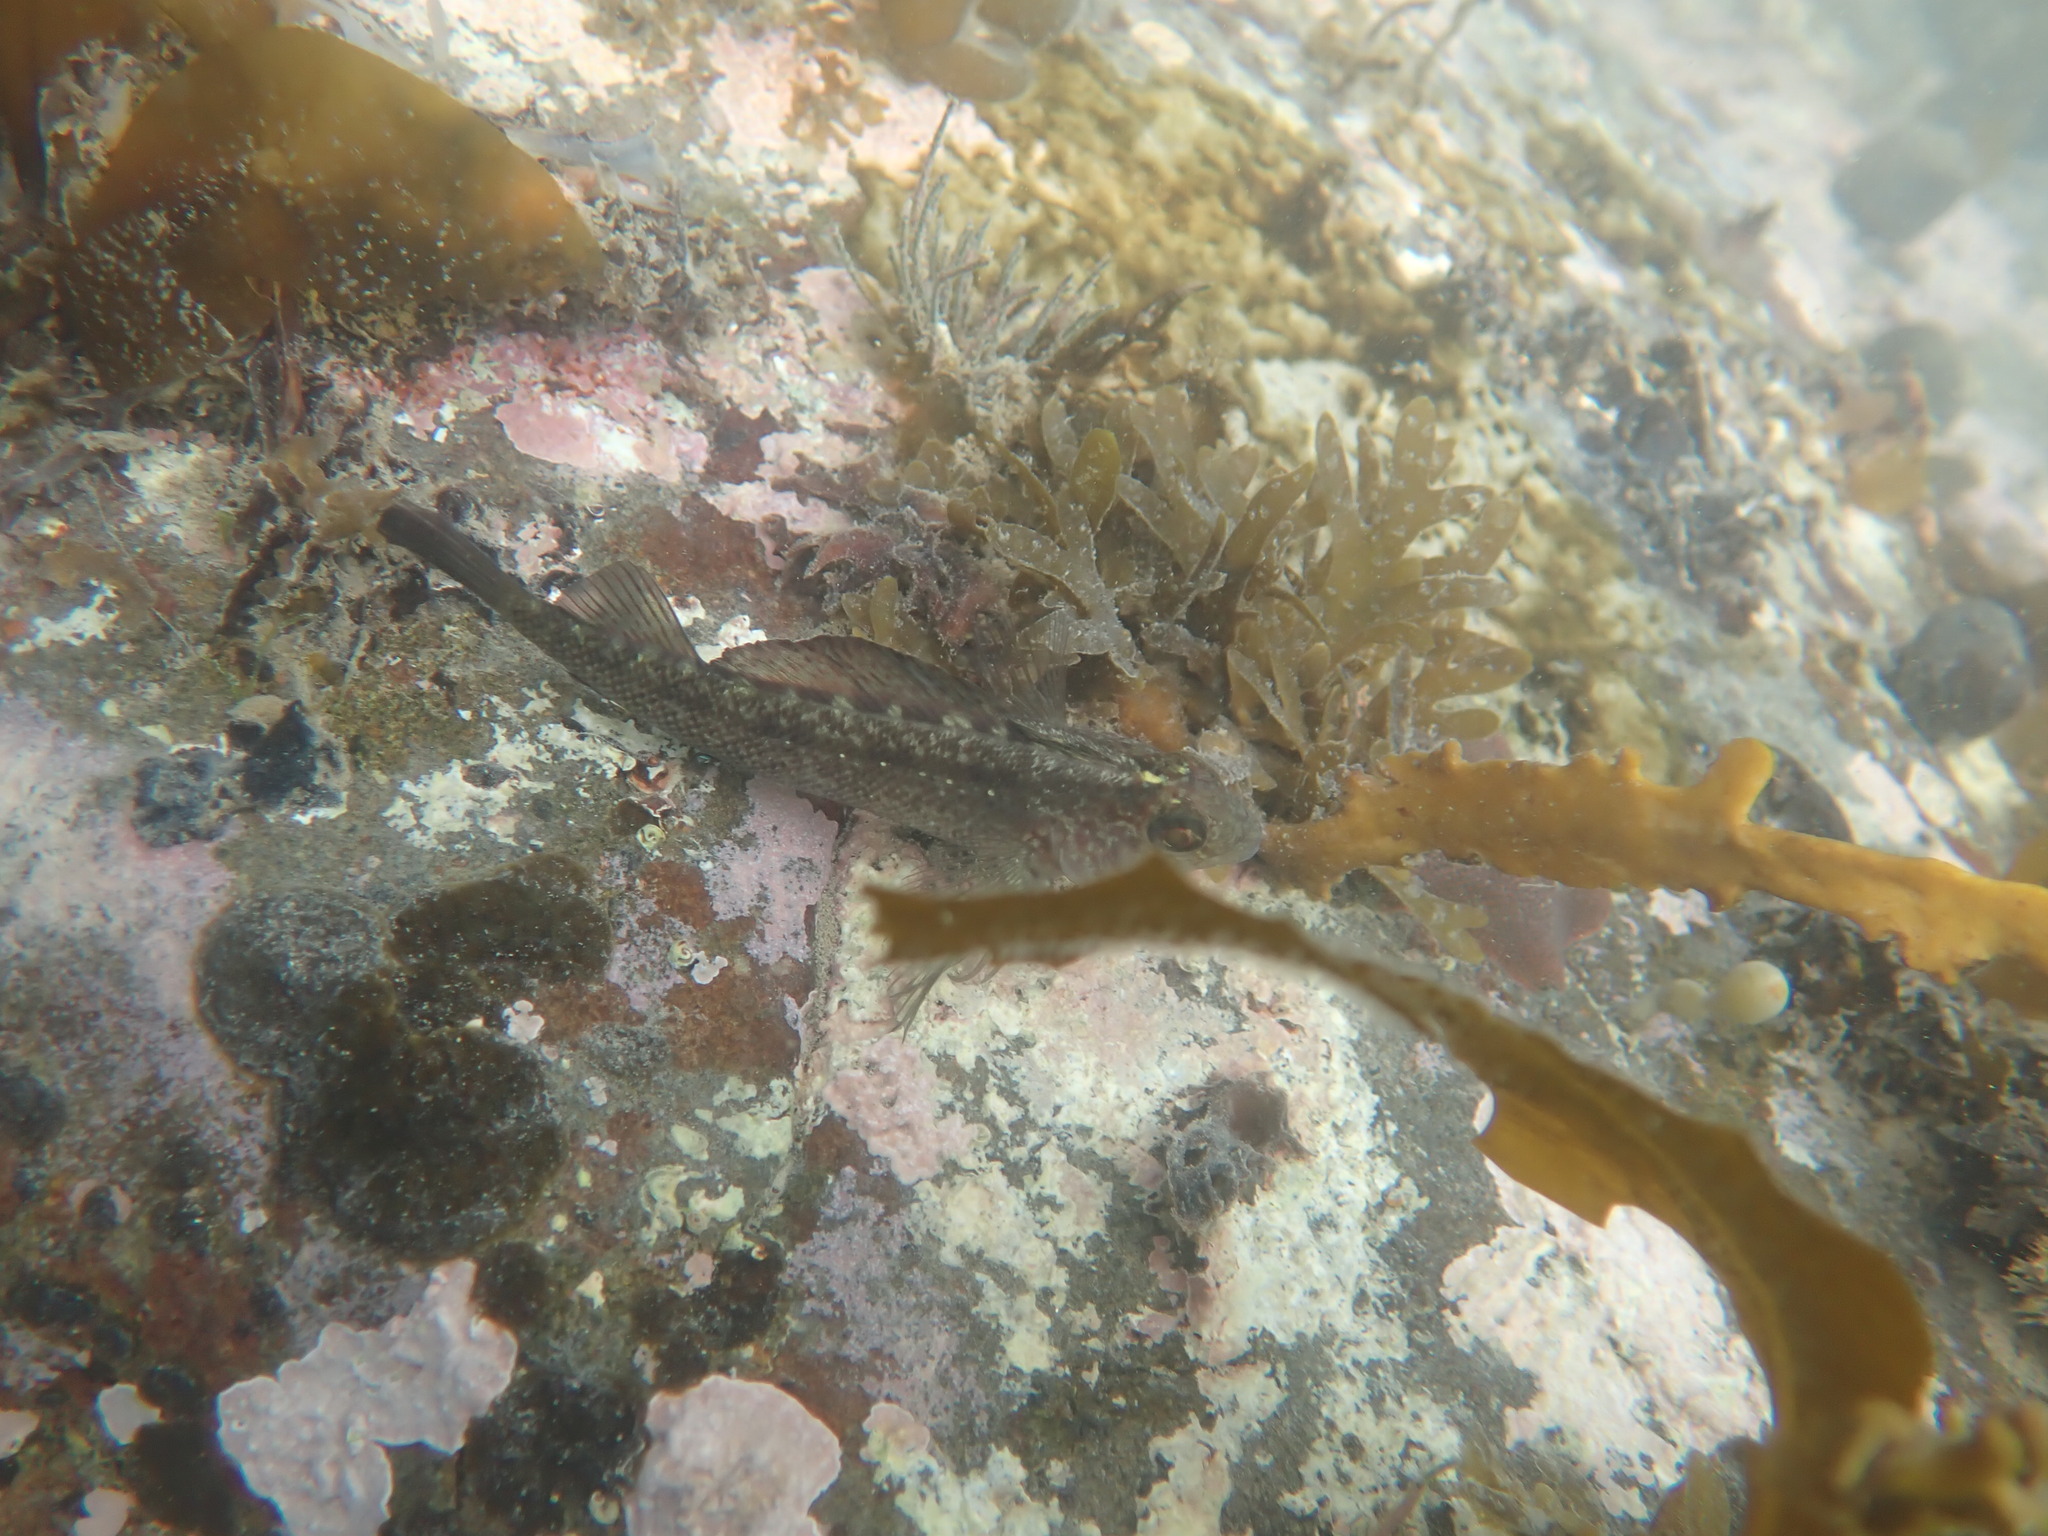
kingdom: Animalia
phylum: Chordata
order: Perciformes
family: Tripterygiidae
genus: Forsterygion
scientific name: Forsterygion lapillum
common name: Common triplefin
